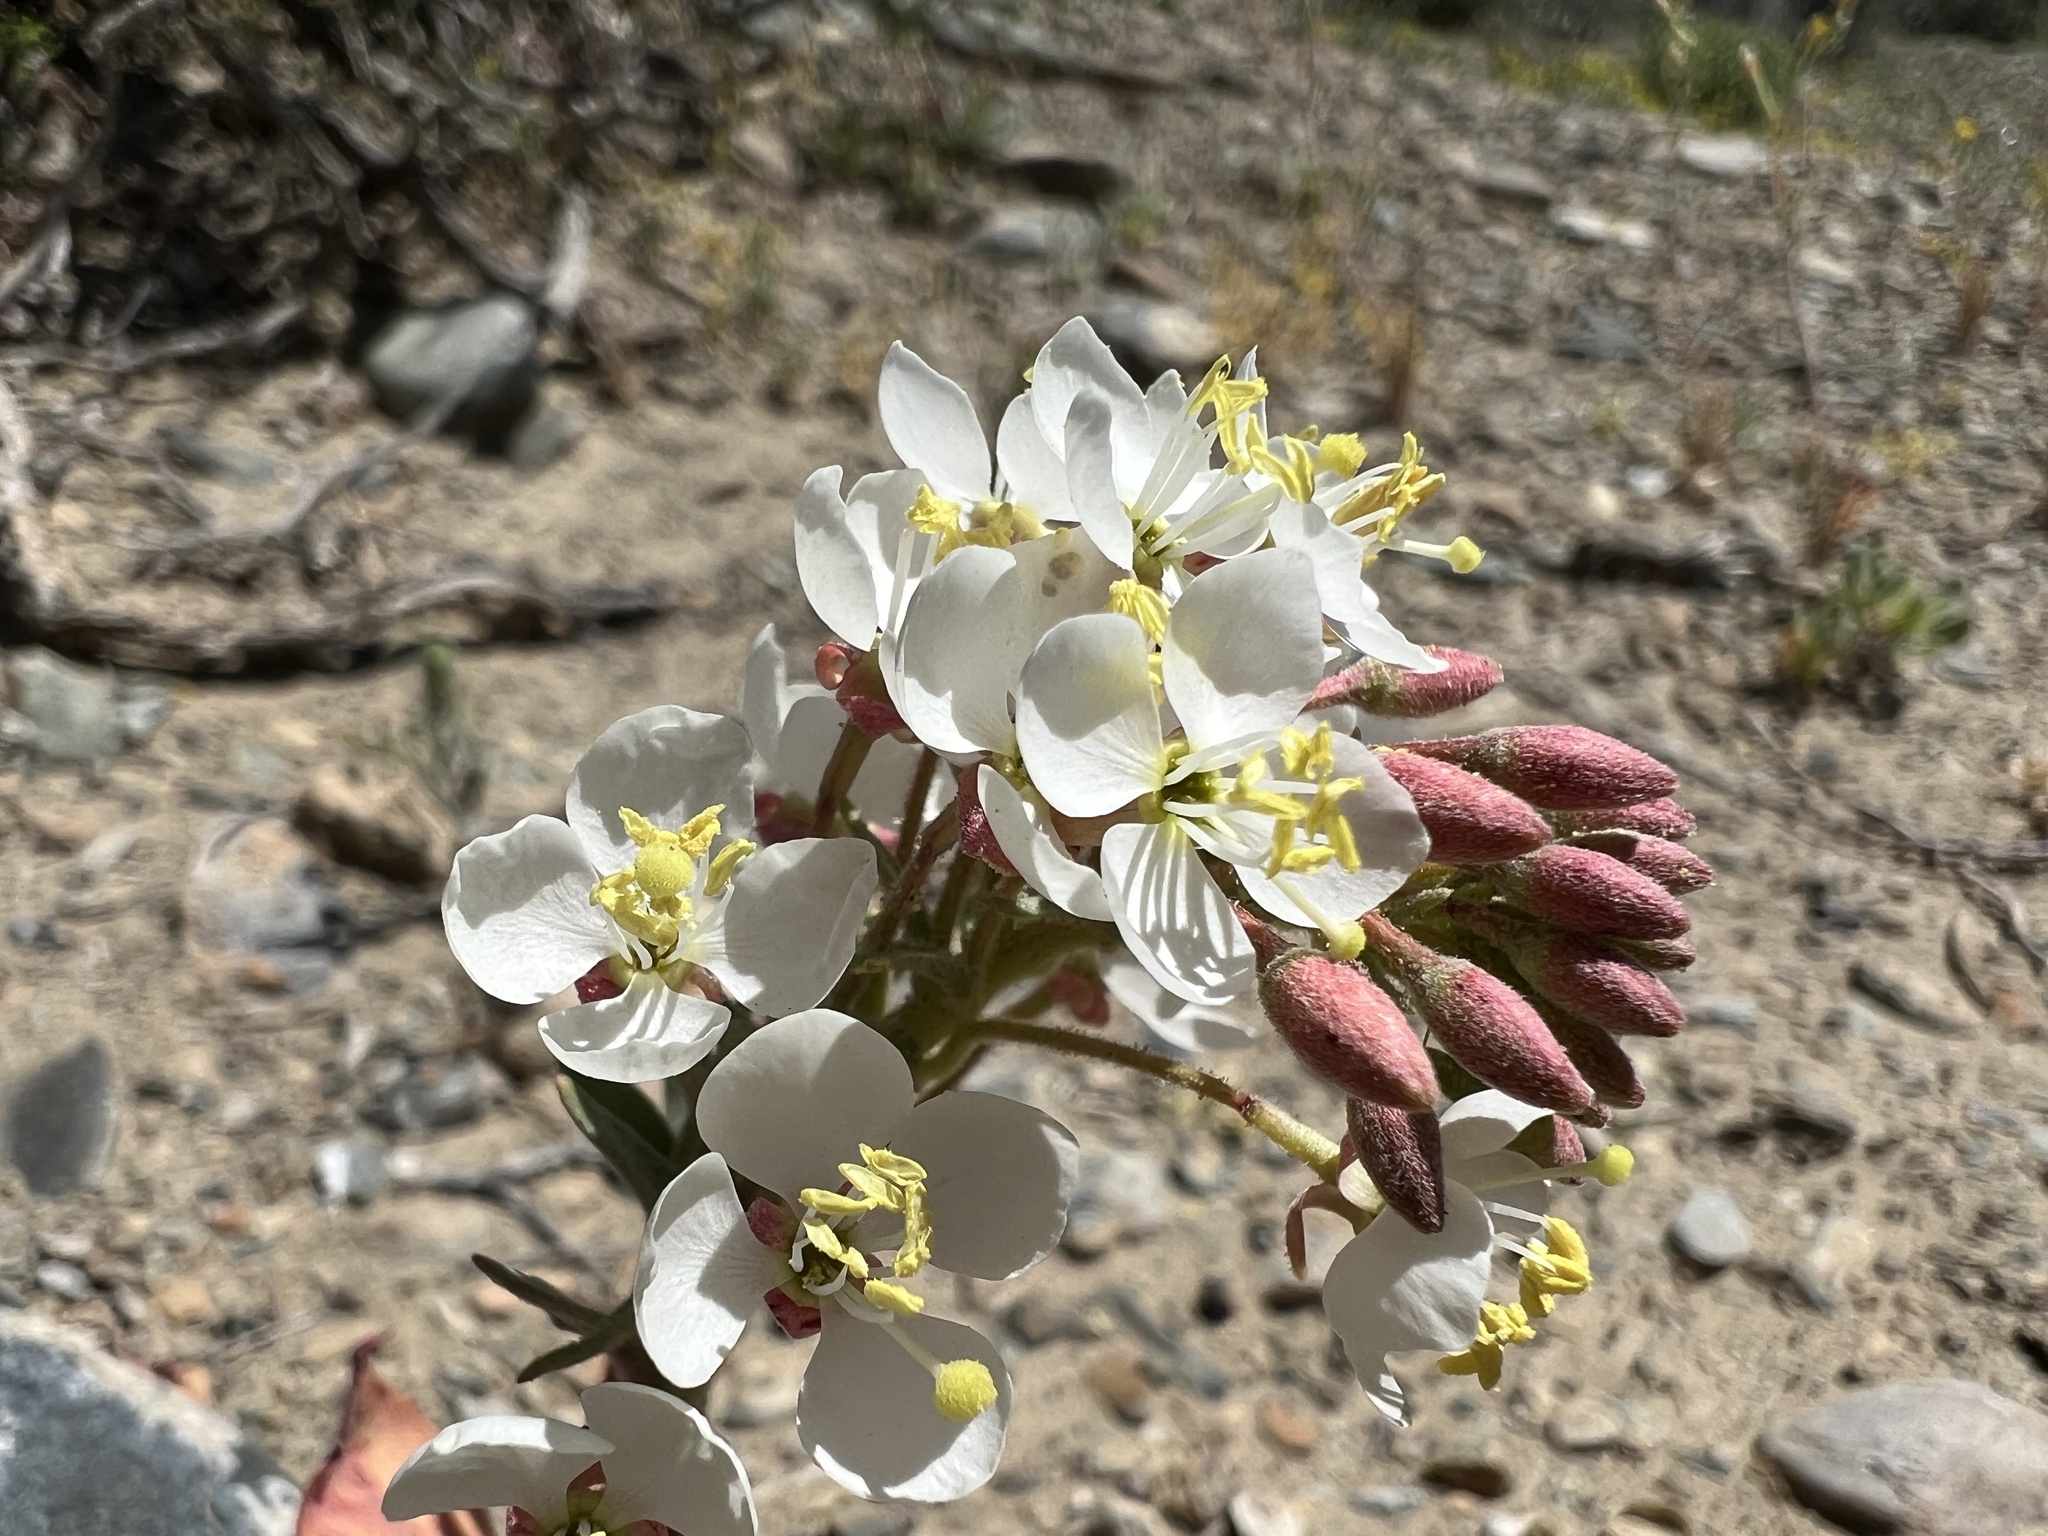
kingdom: Plantae
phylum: Tracheophyta
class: Magnoliopsida
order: Myrtales
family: Onagraceae
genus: Eremothera
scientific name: Eremothera boothii
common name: Booth's evening primrose
